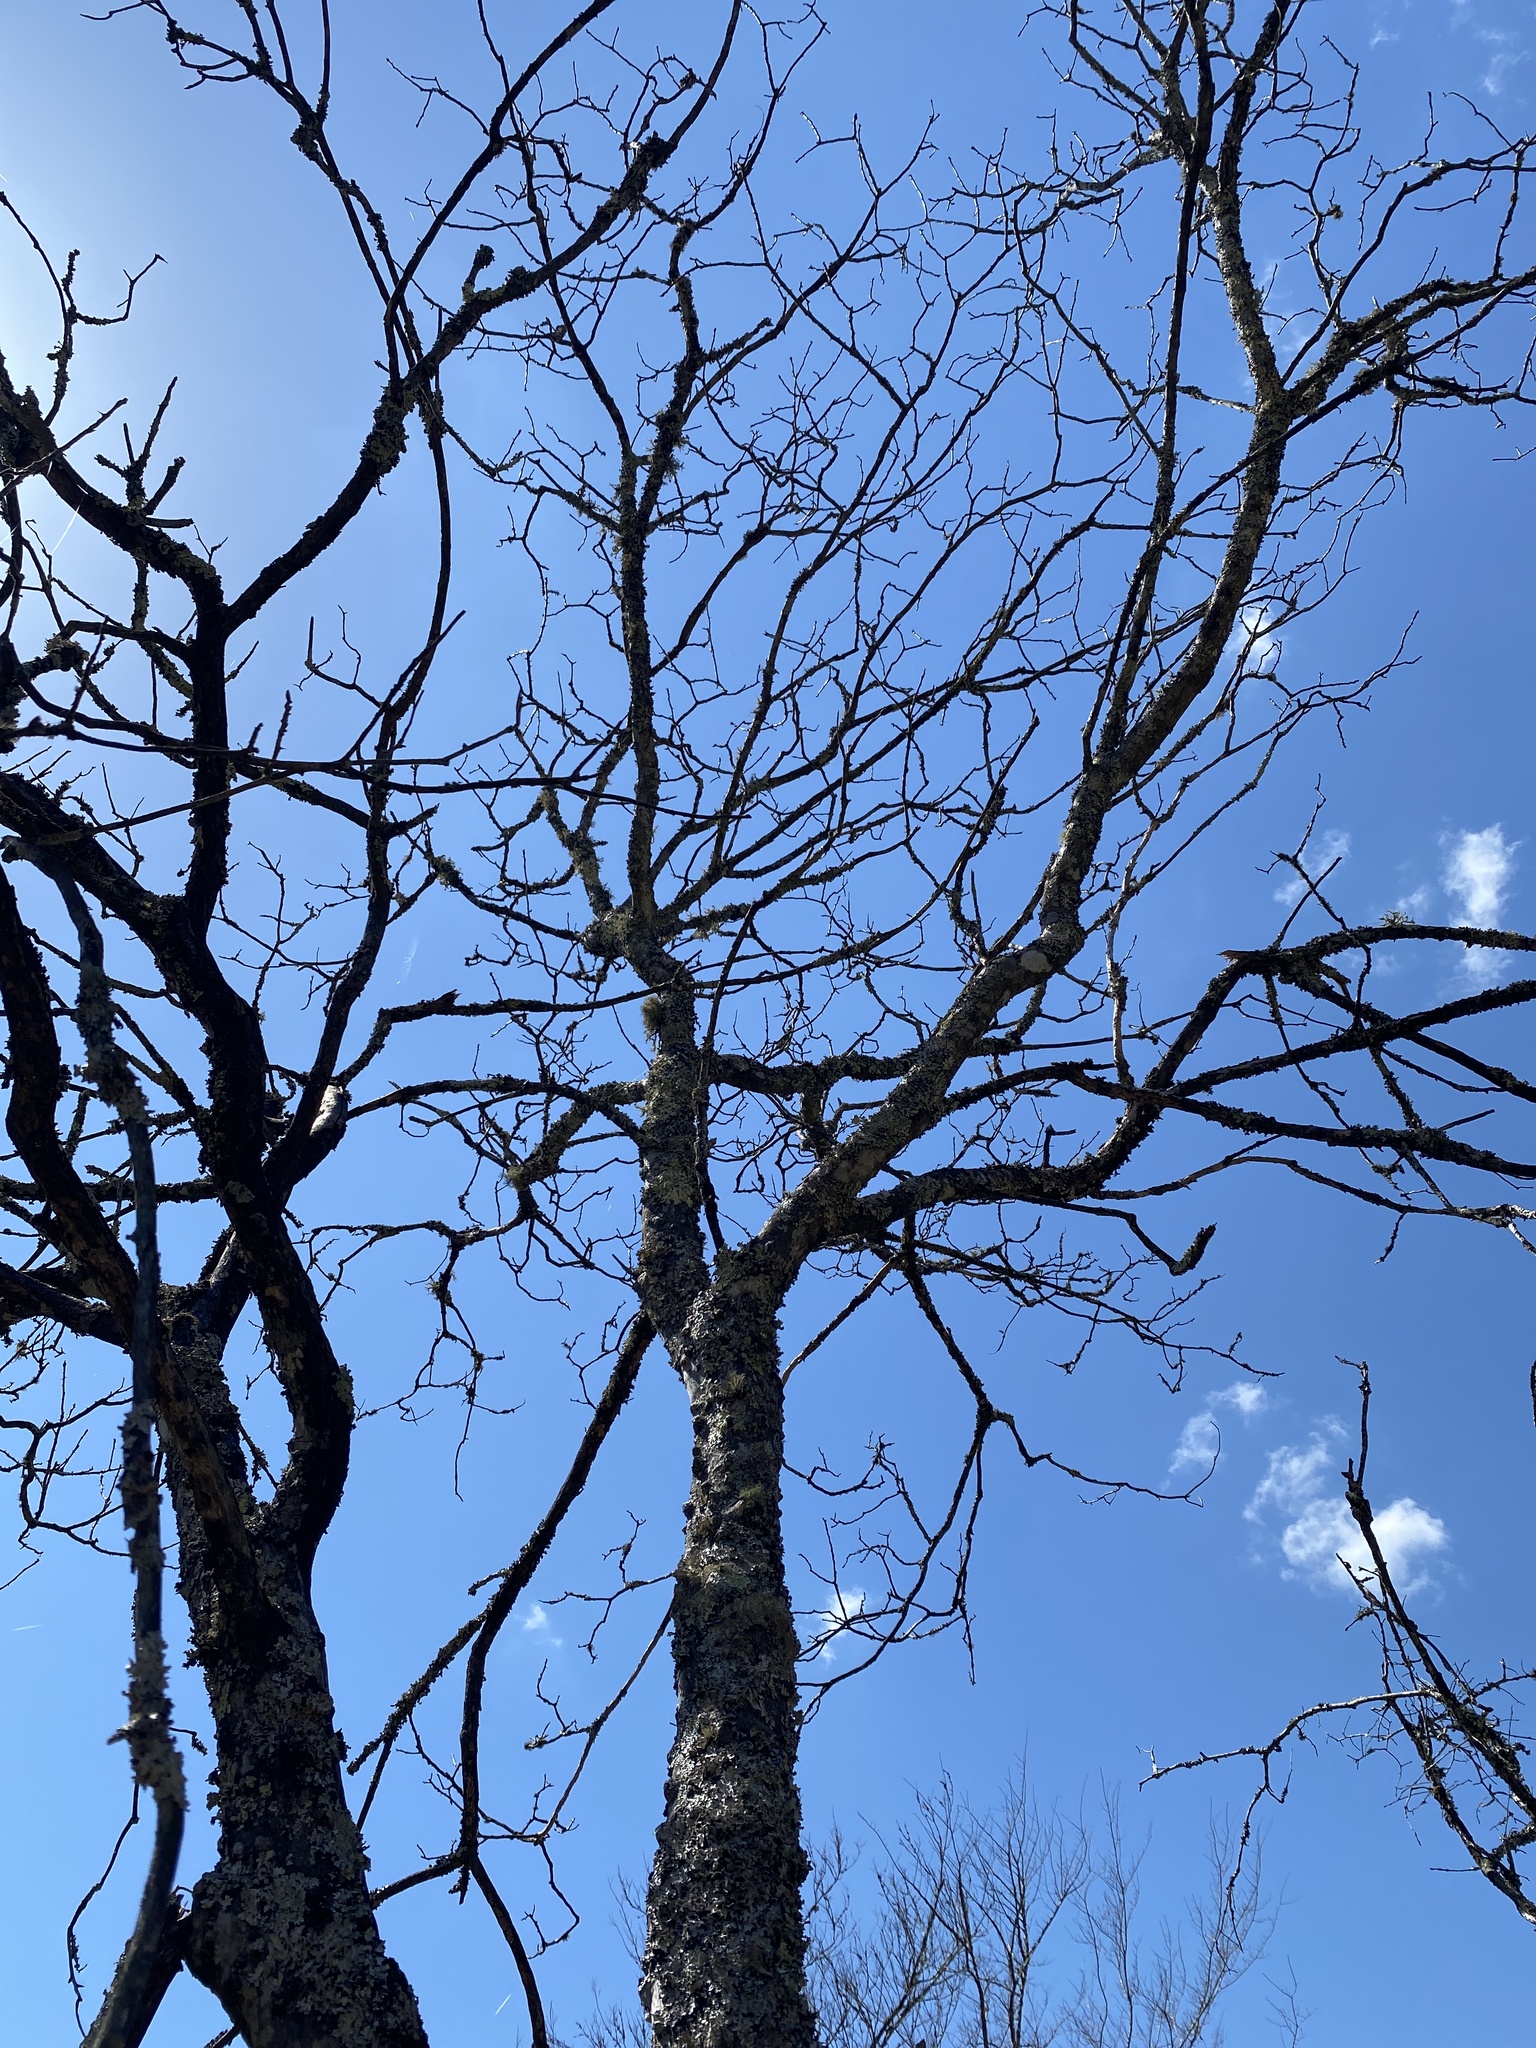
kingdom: Plantae
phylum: Tracheophyta
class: Magnoliopsida
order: Sapindales
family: Rutaceae
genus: Zanthoxylum
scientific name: Zanthoxylum clava-herculis
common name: Hercules'-club
